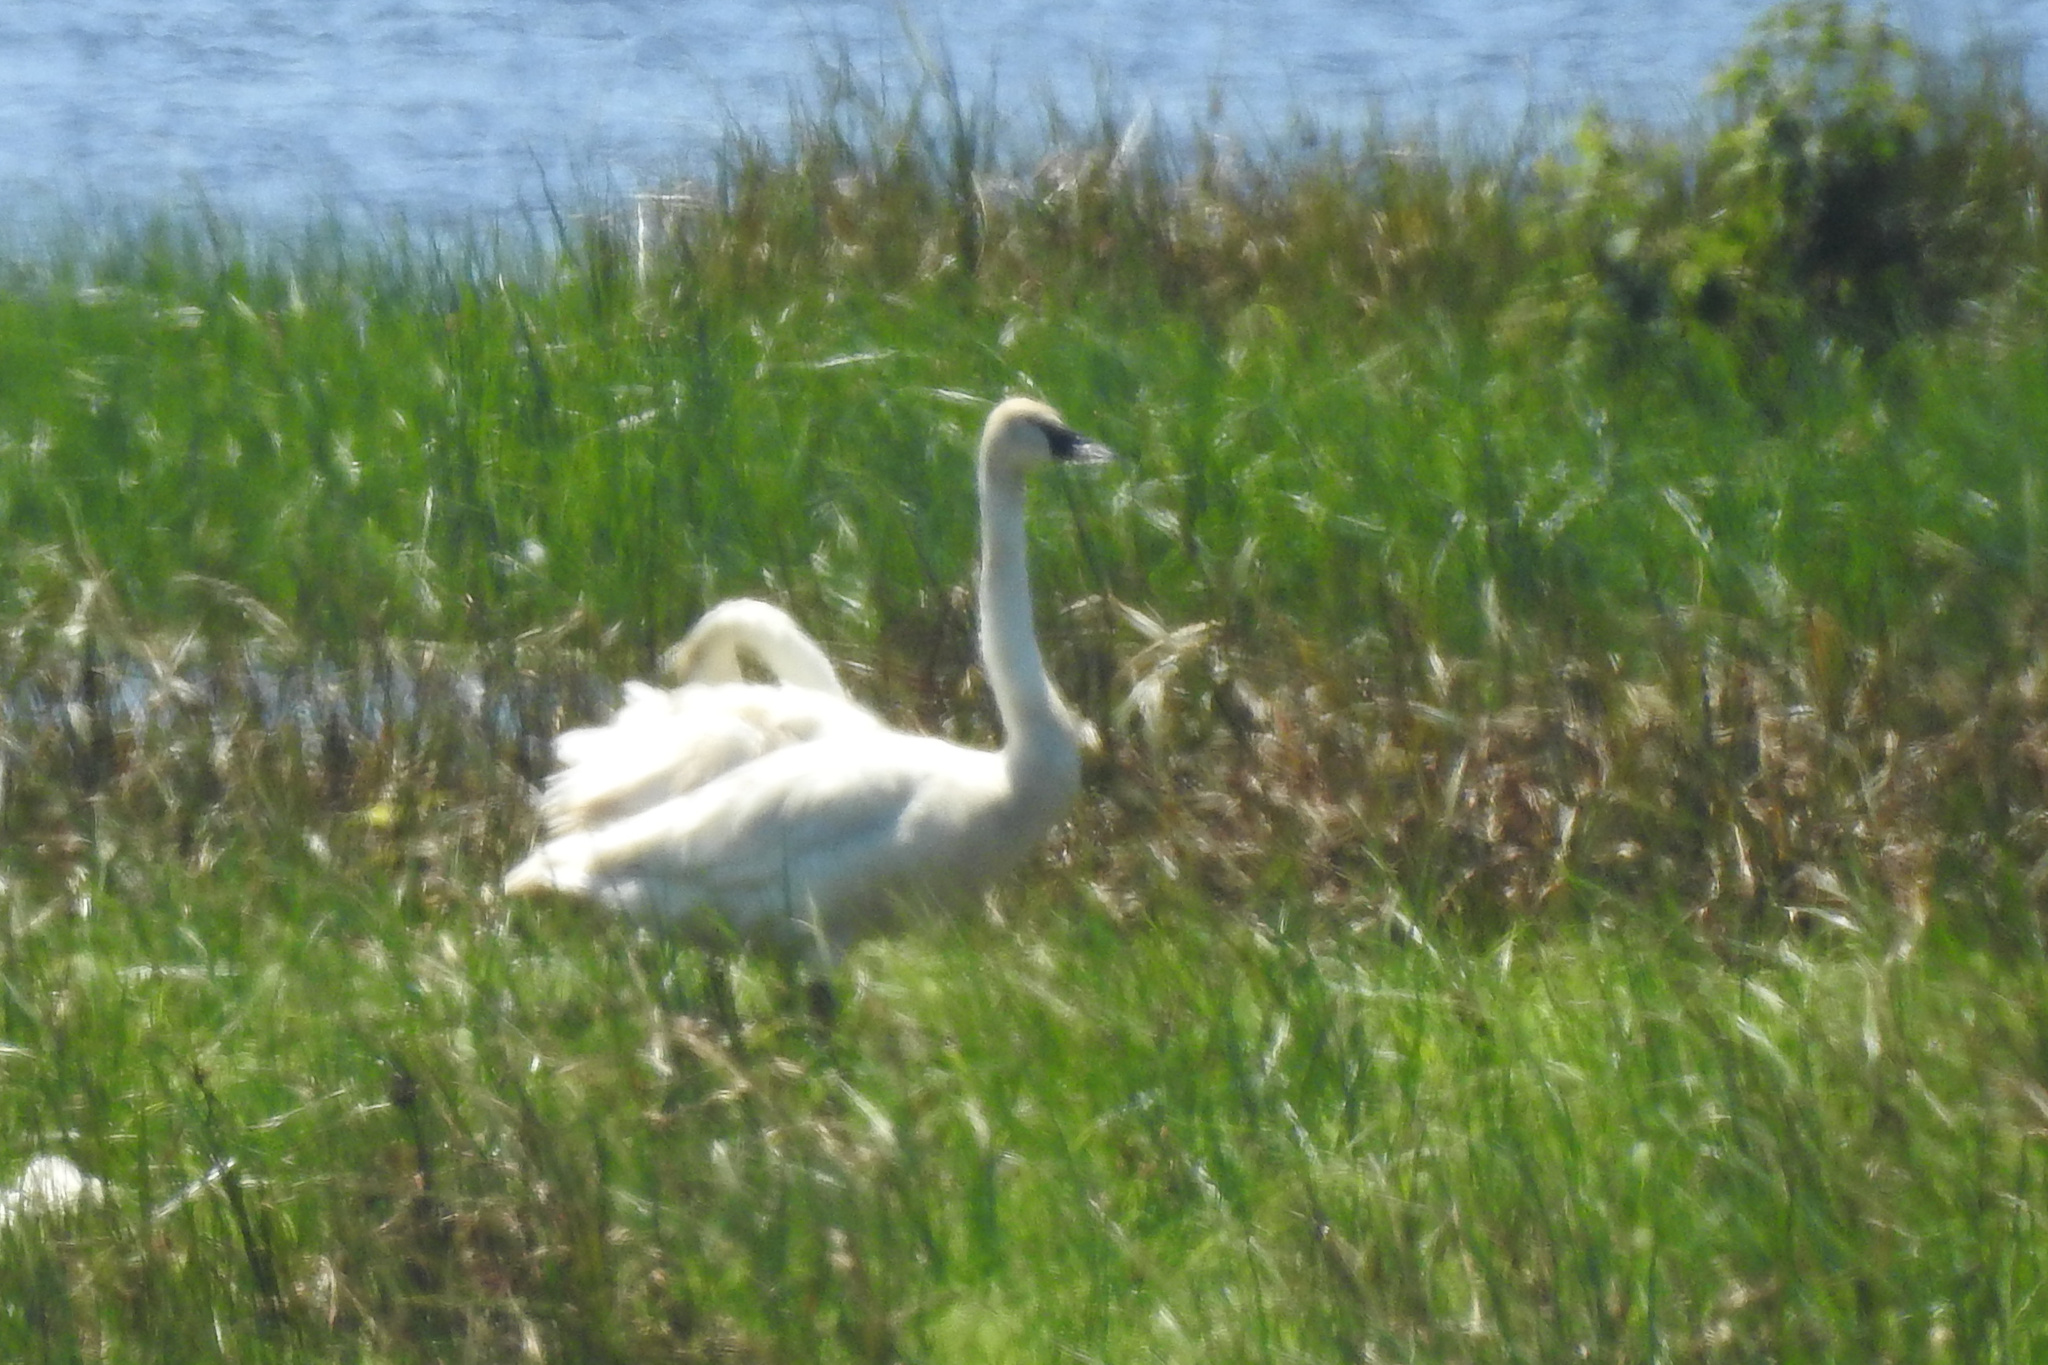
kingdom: Animalia
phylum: Chordata
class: Aves
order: Anseriformes
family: Anatidae
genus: Cygnus
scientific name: Cygnus buccinator
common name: Trumpeter swan
